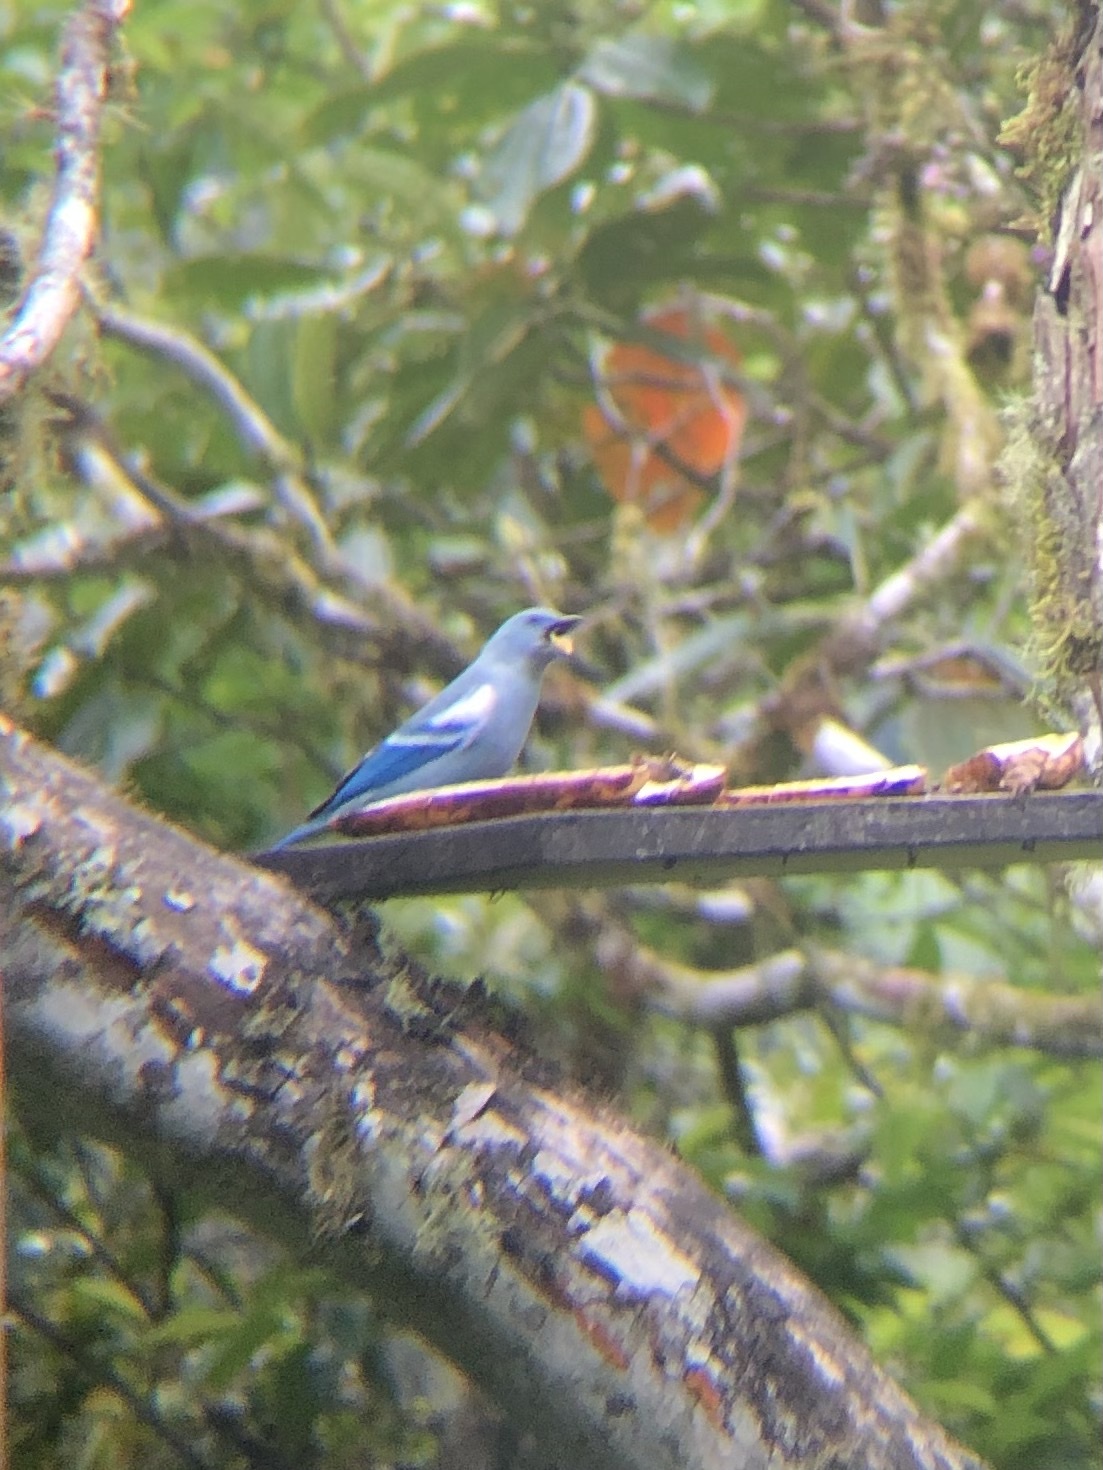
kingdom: Animalia
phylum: Chordata
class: Aves
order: Passeriformes
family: Thraupidae
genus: Thraupis
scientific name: Thraupis episcopus
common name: Blue-grey tanager
